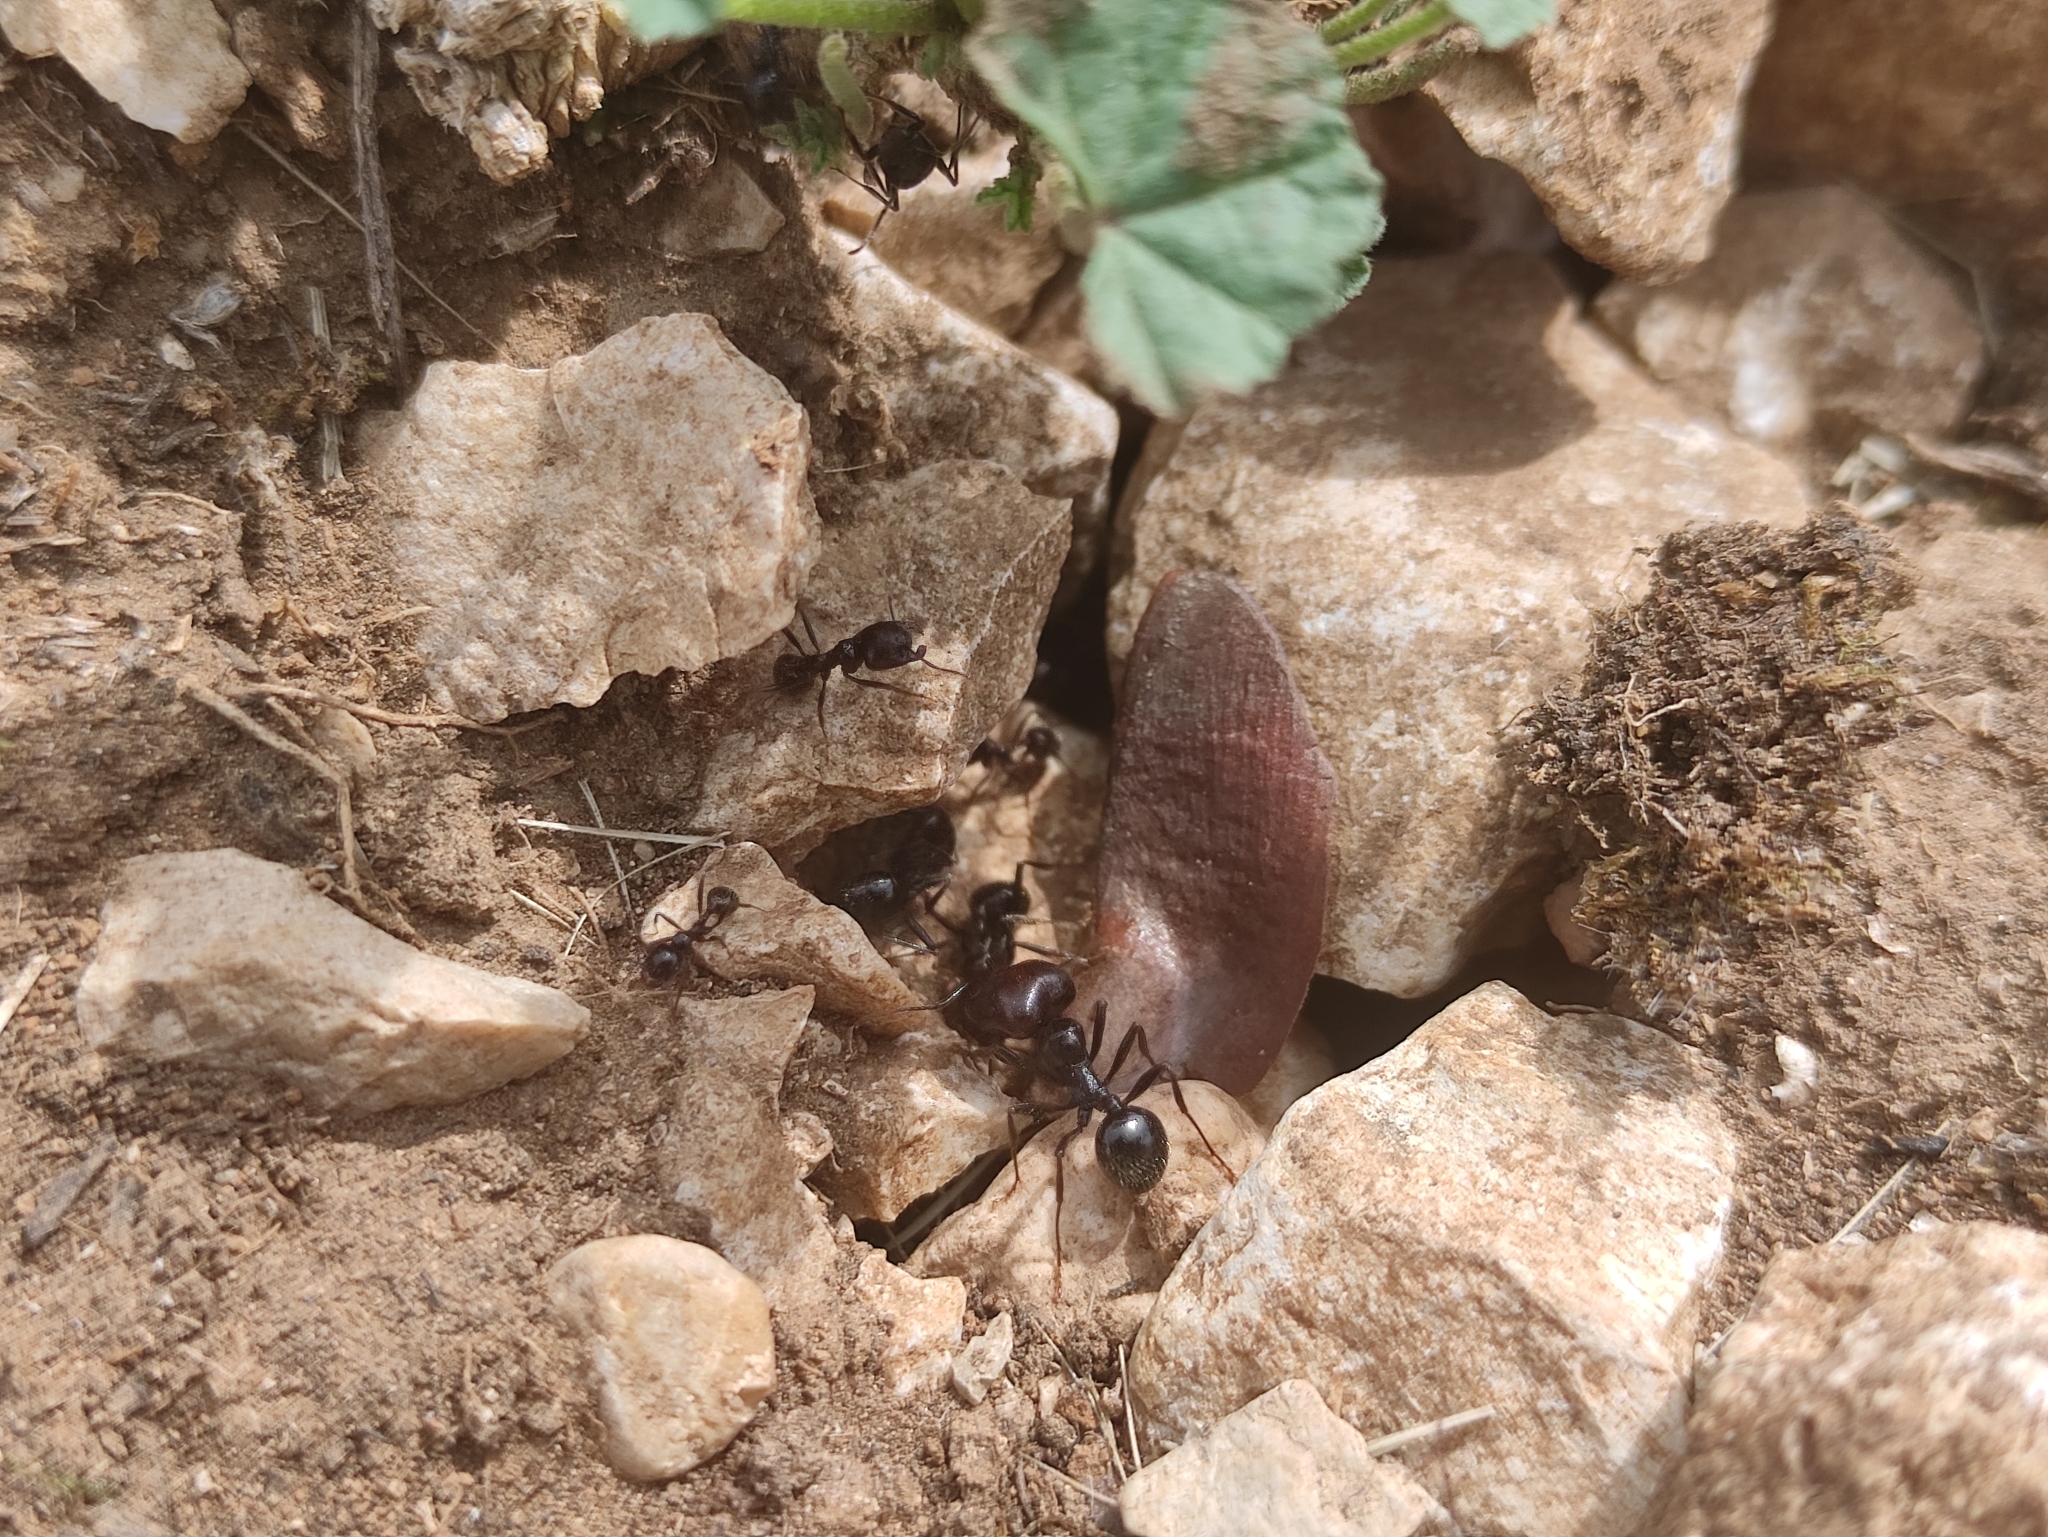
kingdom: Animalia
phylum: Arthropoda
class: Insecta
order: Hymenoptera
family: Formicidae
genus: Messor
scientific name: Messor barbarus
